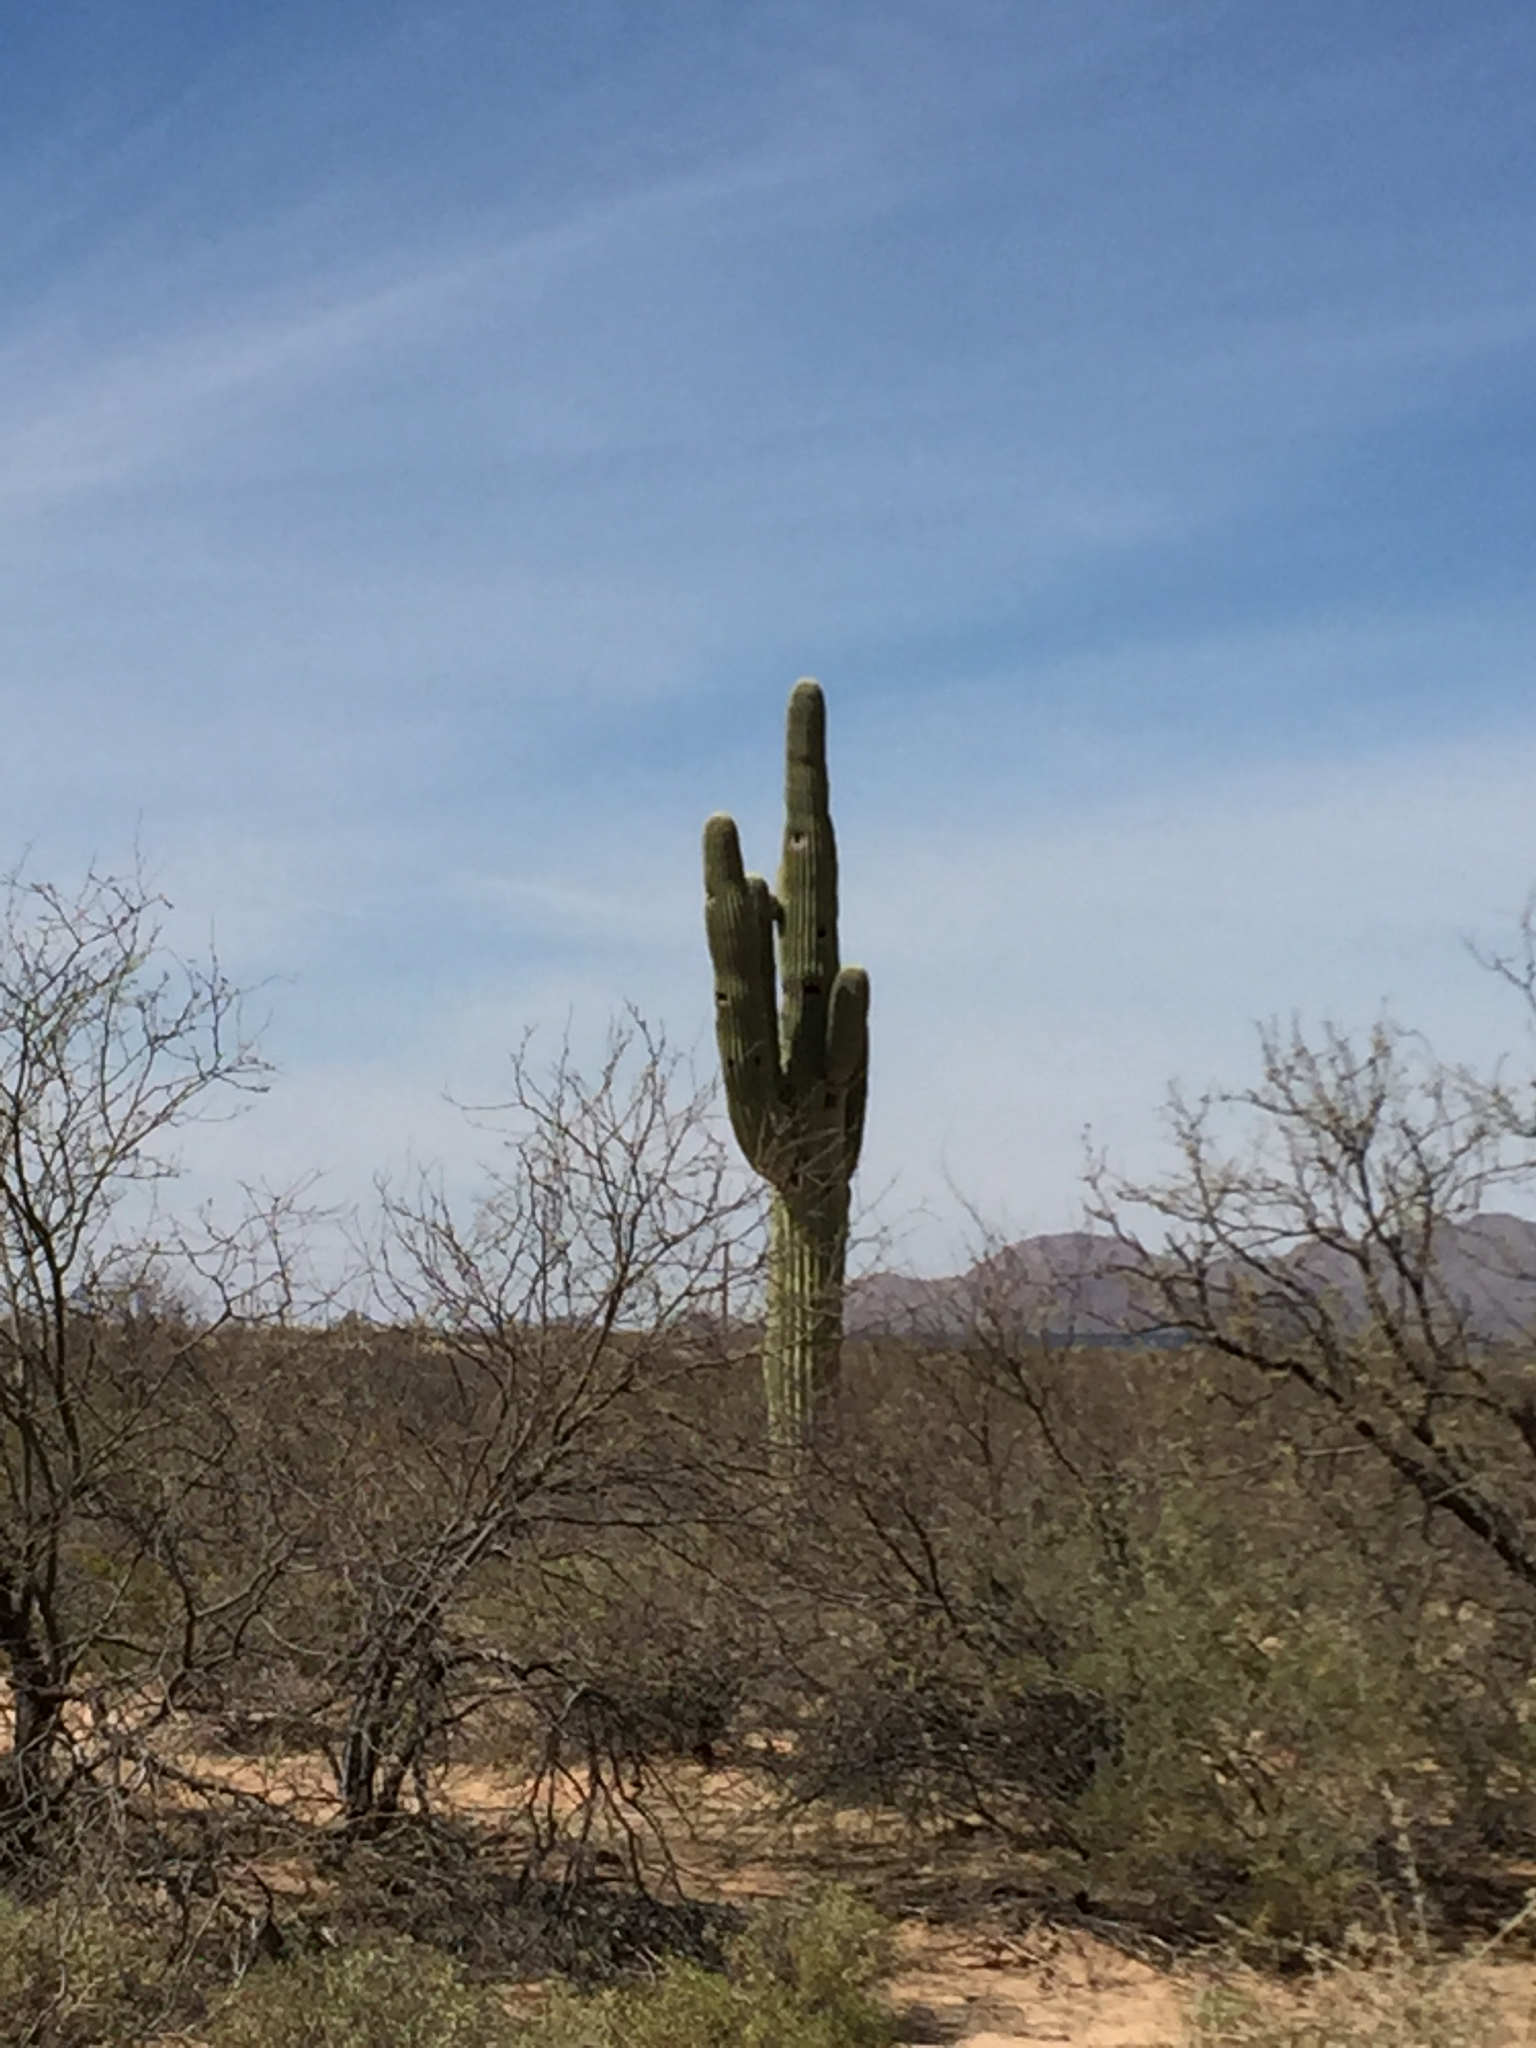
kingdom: Plantae
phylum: Tracheophyta
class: Magnoliopsida
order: Caryophyllales
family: Cactaceae
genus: Carnegiea
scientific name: Carnegiea gigantea
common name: Saguaro
